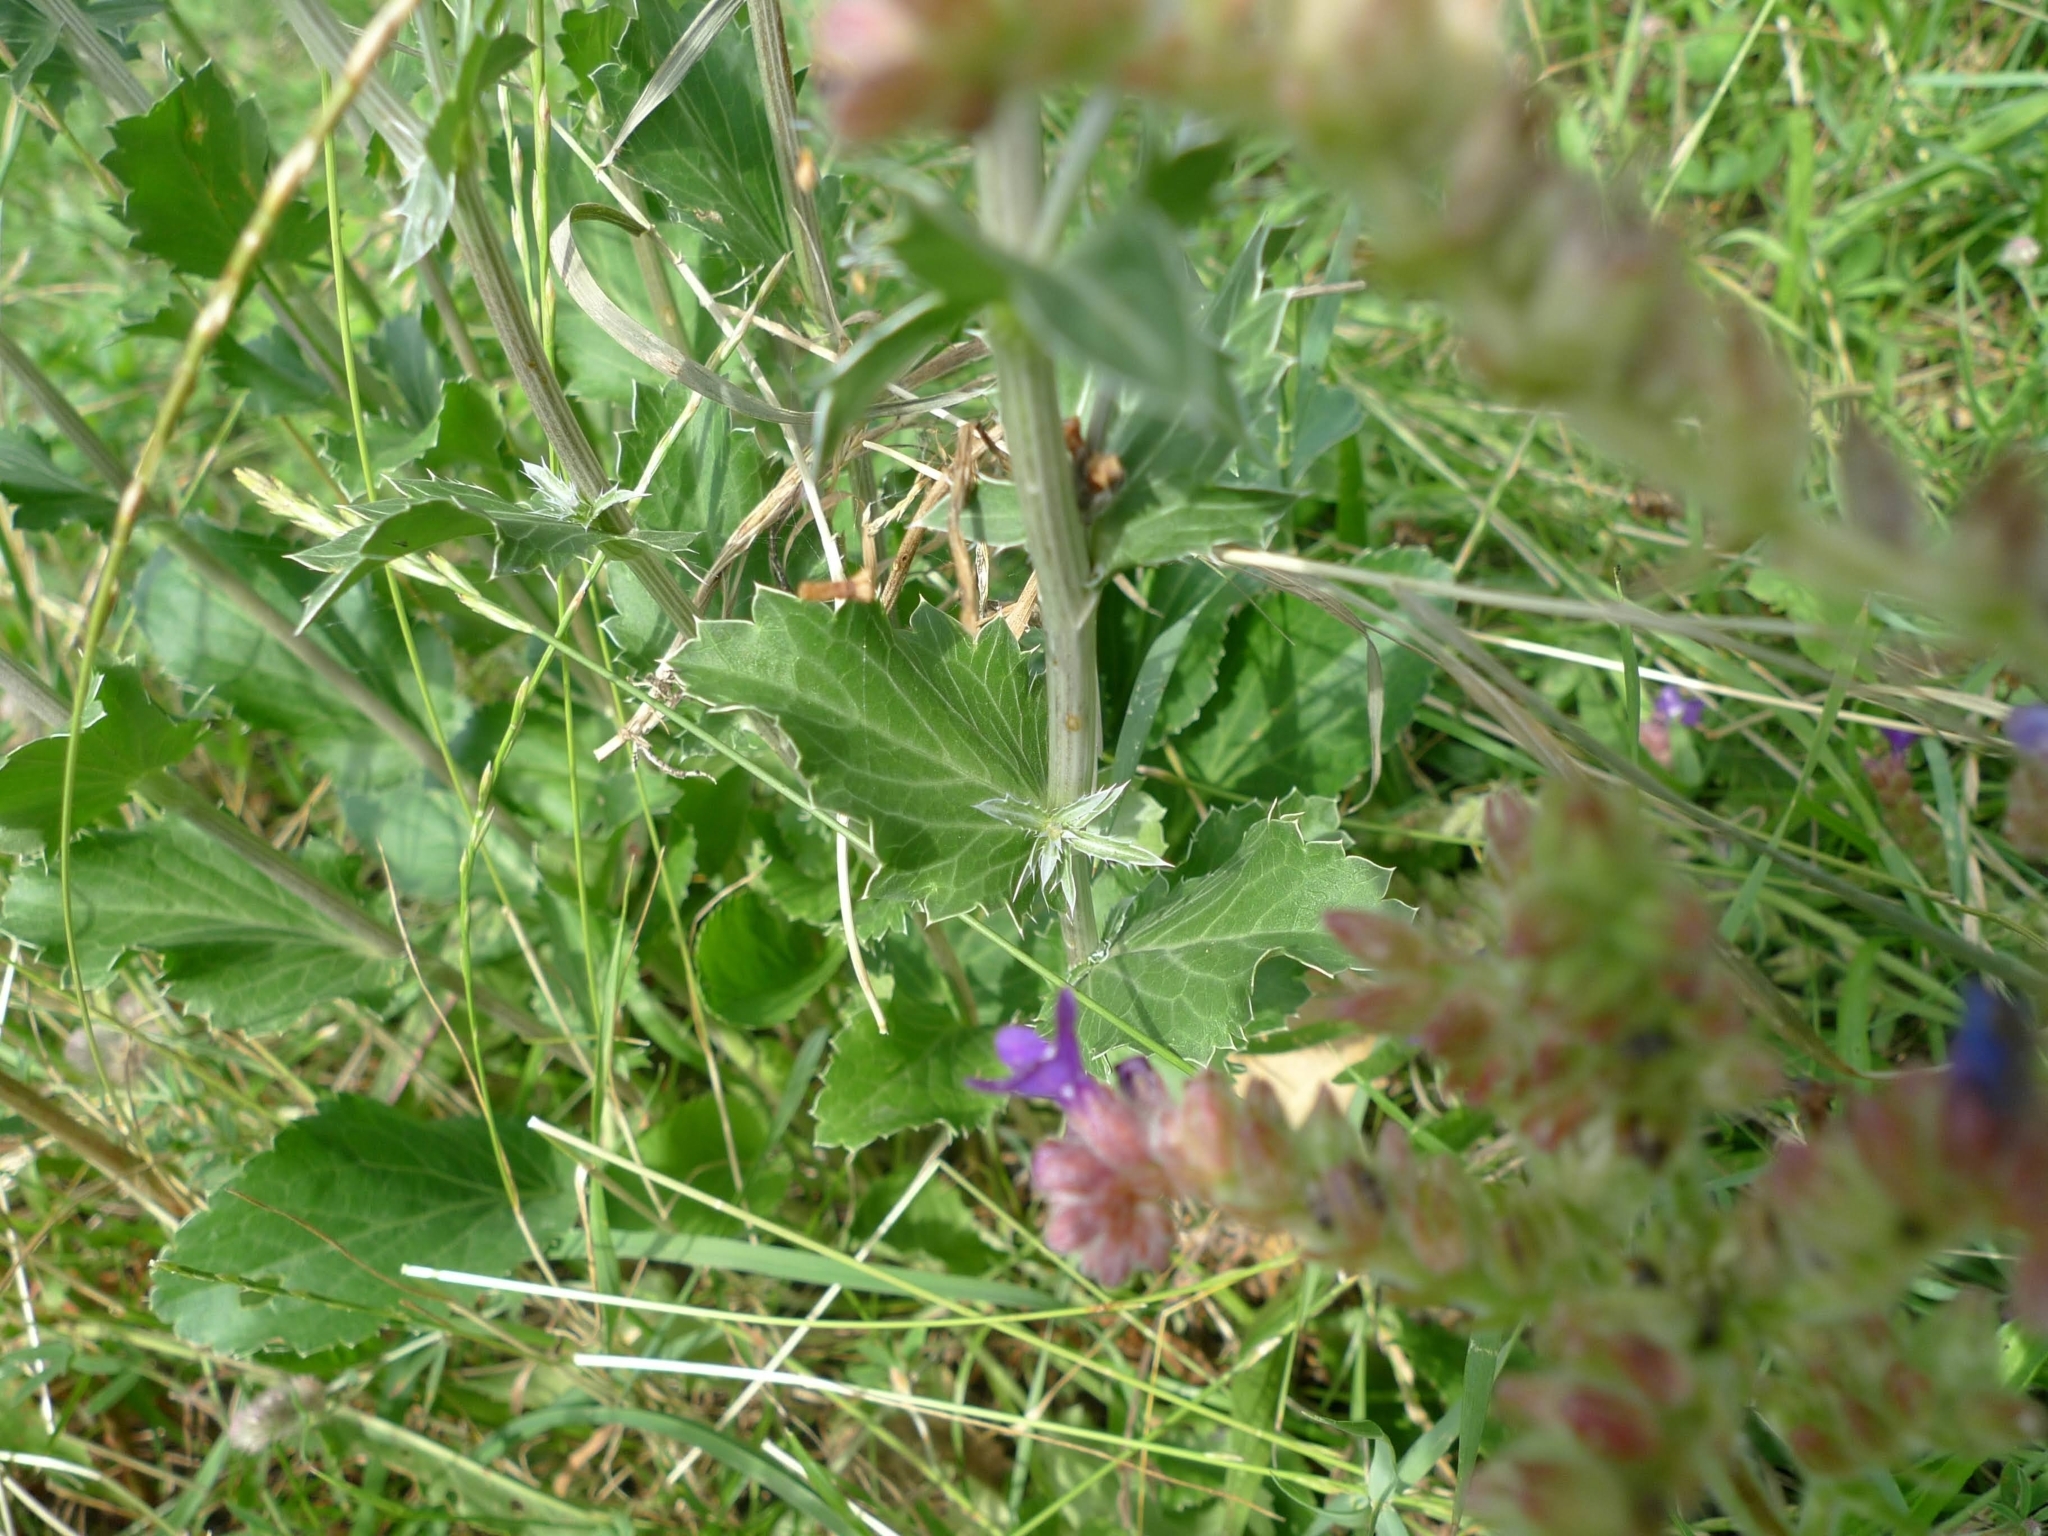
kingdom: Plantae
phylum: Tracheophyta
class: Magnoliopsida
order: Apiales
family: Apiaceae
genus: Eryngium
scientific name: Eryngium planum
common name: Blue eryngo
